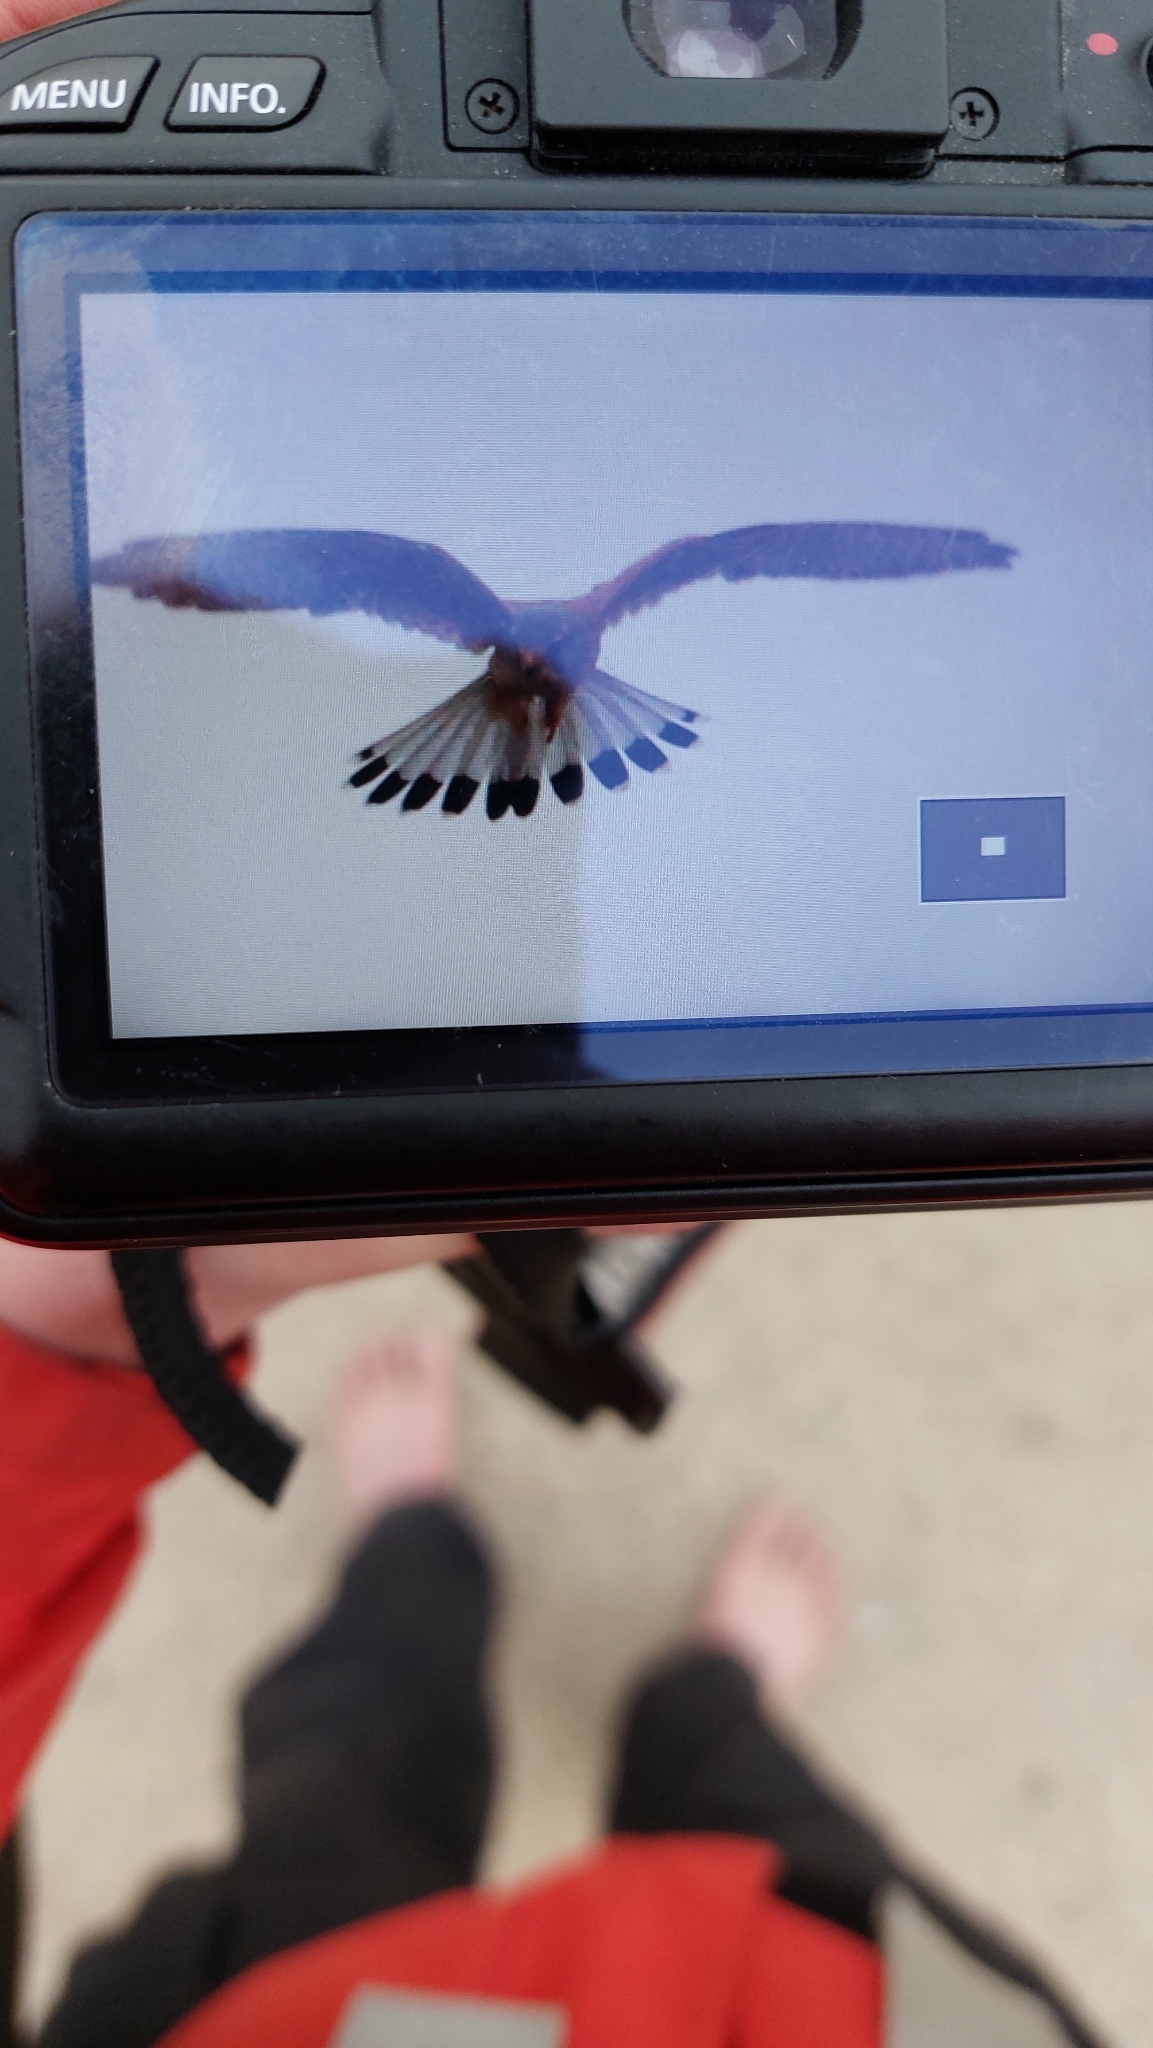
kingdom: Animalia
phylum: Chordata
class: Aves
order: Falconiformes
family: Falconidae
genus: Falco
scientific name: Falco tinnunculus
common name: Common kestrel
